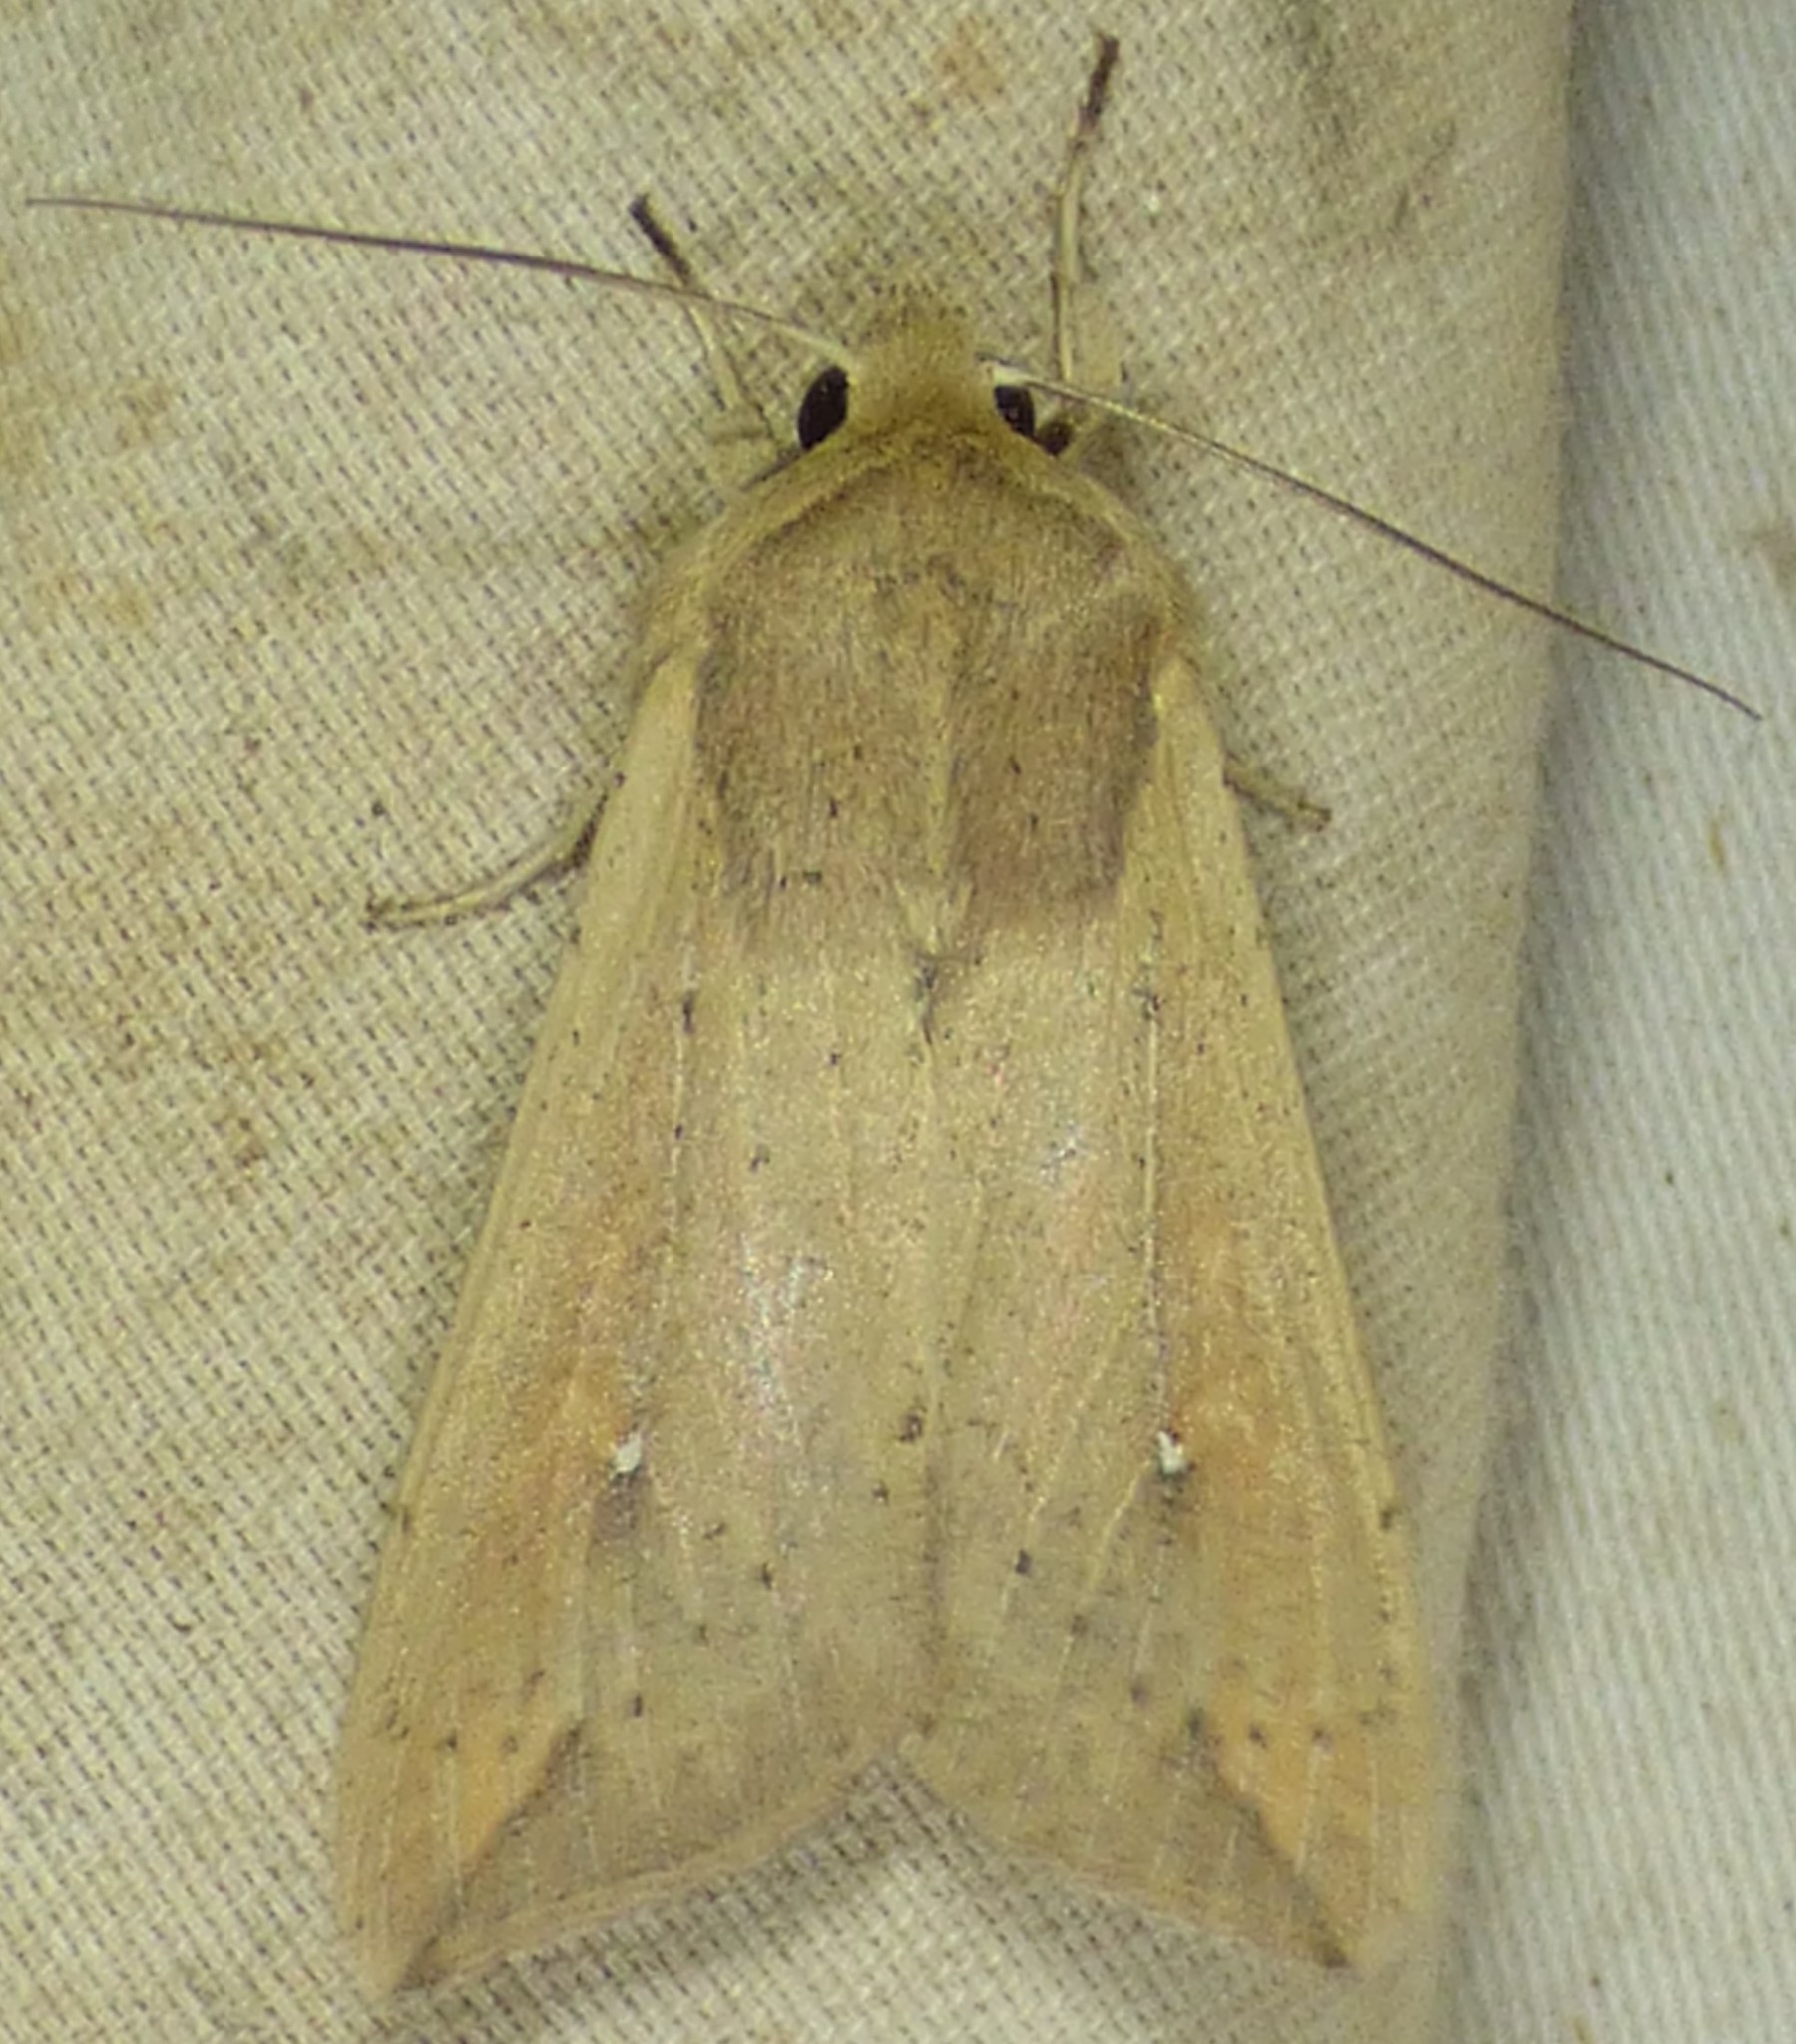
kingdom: Animalia
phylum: Arthropoda
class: Insecta
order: Lepidoptera
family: Noctuidae
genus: Mythimna
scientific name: Mythimna unipuncta
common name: White-speck
